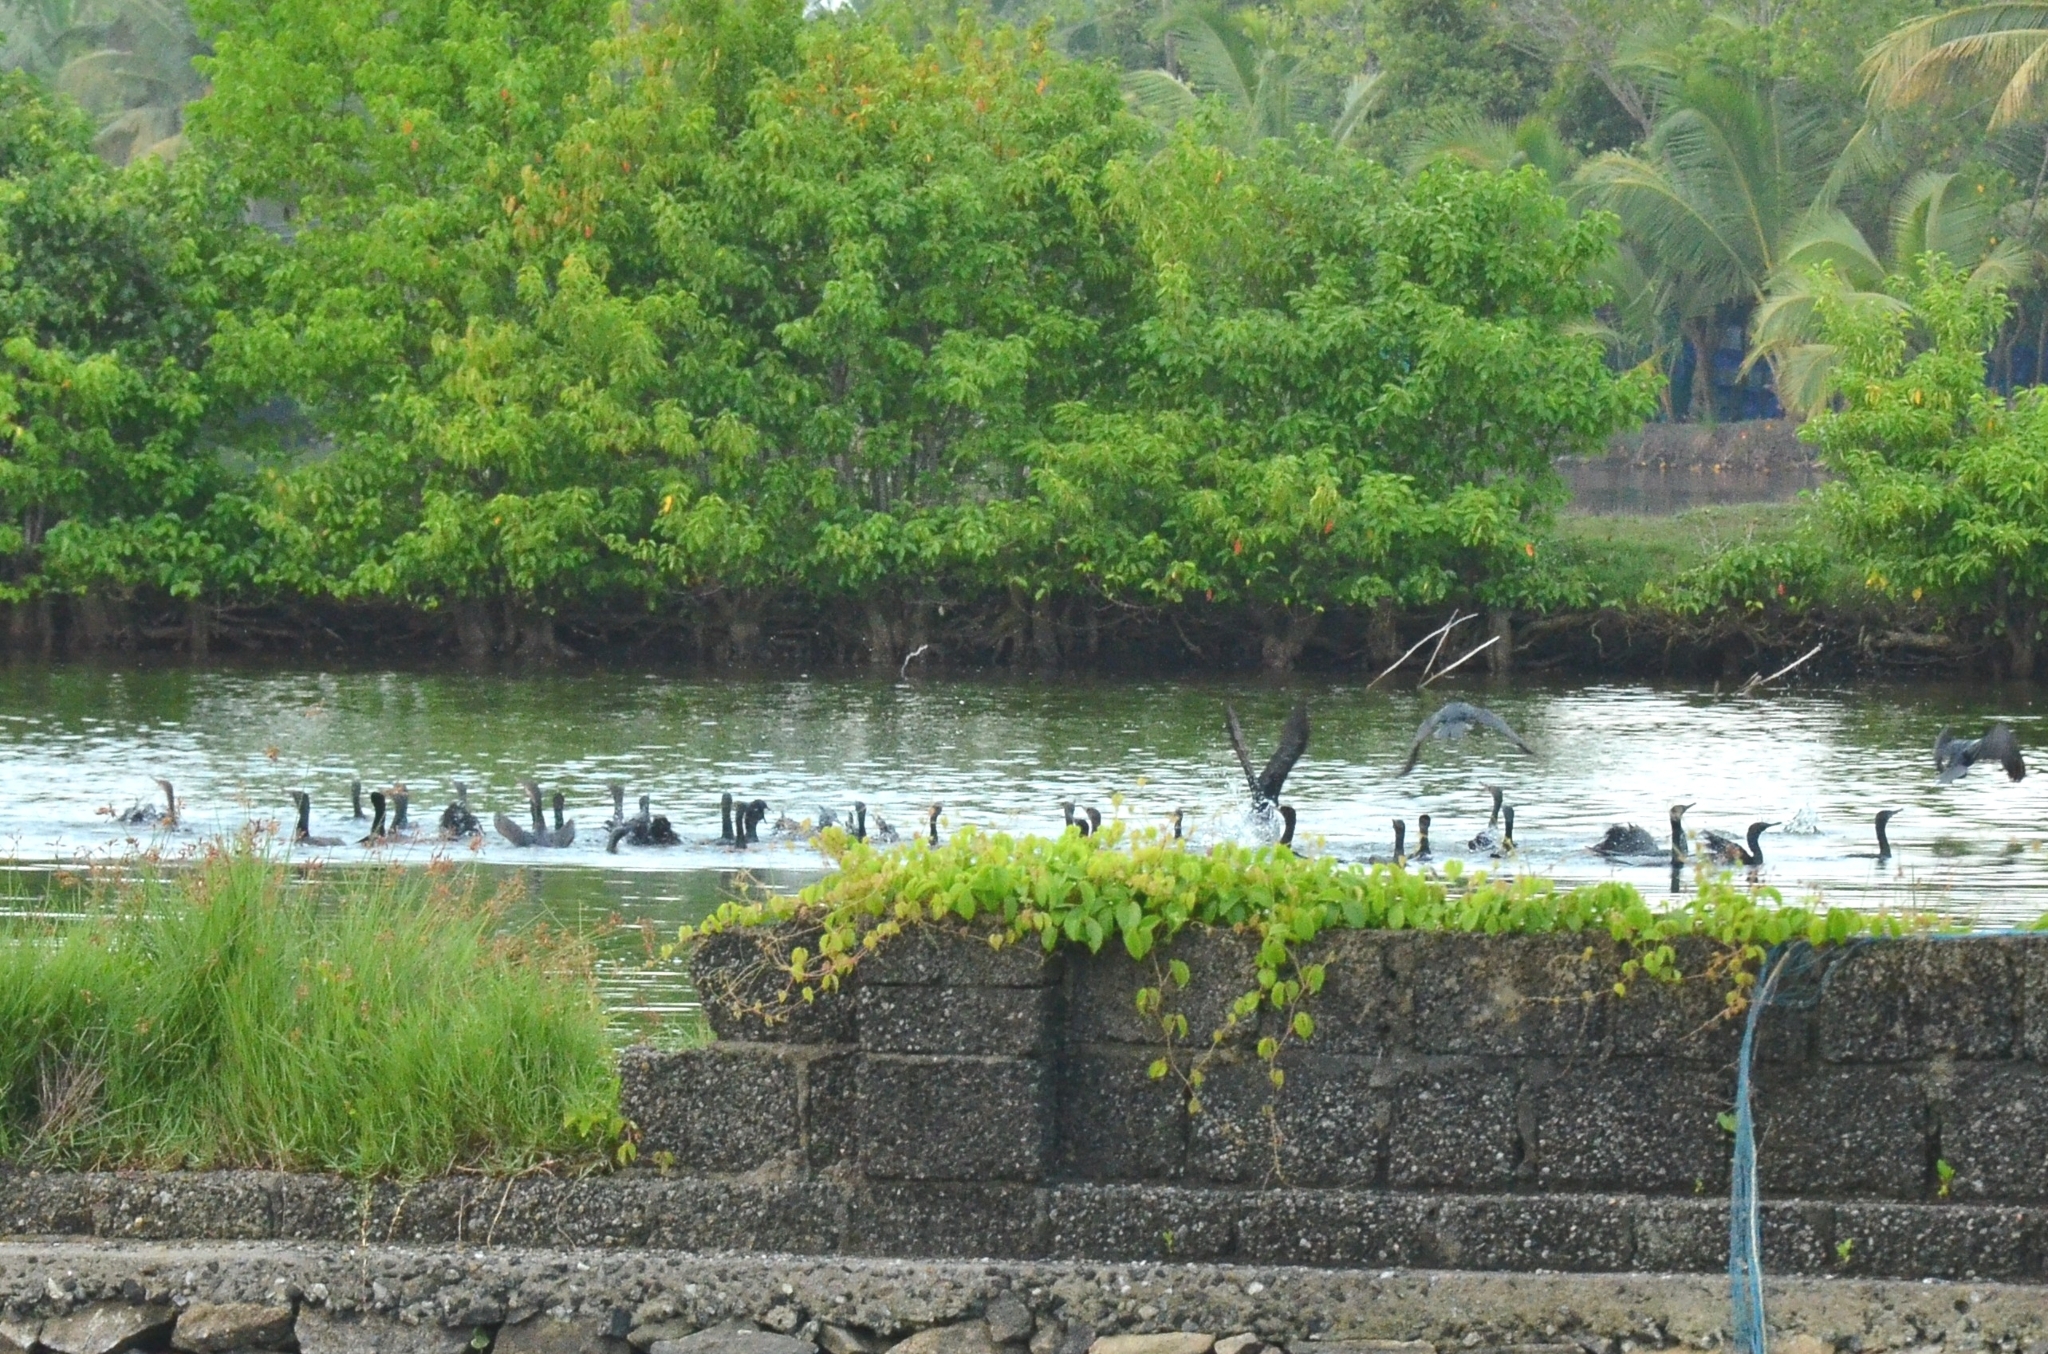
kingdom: Animalia
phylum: Chordata
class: Aves
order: Suliformes
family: Phalacrocoracidae
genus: Phalacrocorax
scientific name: Phalacrocorax fuscicollis
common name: Indian cormorant
